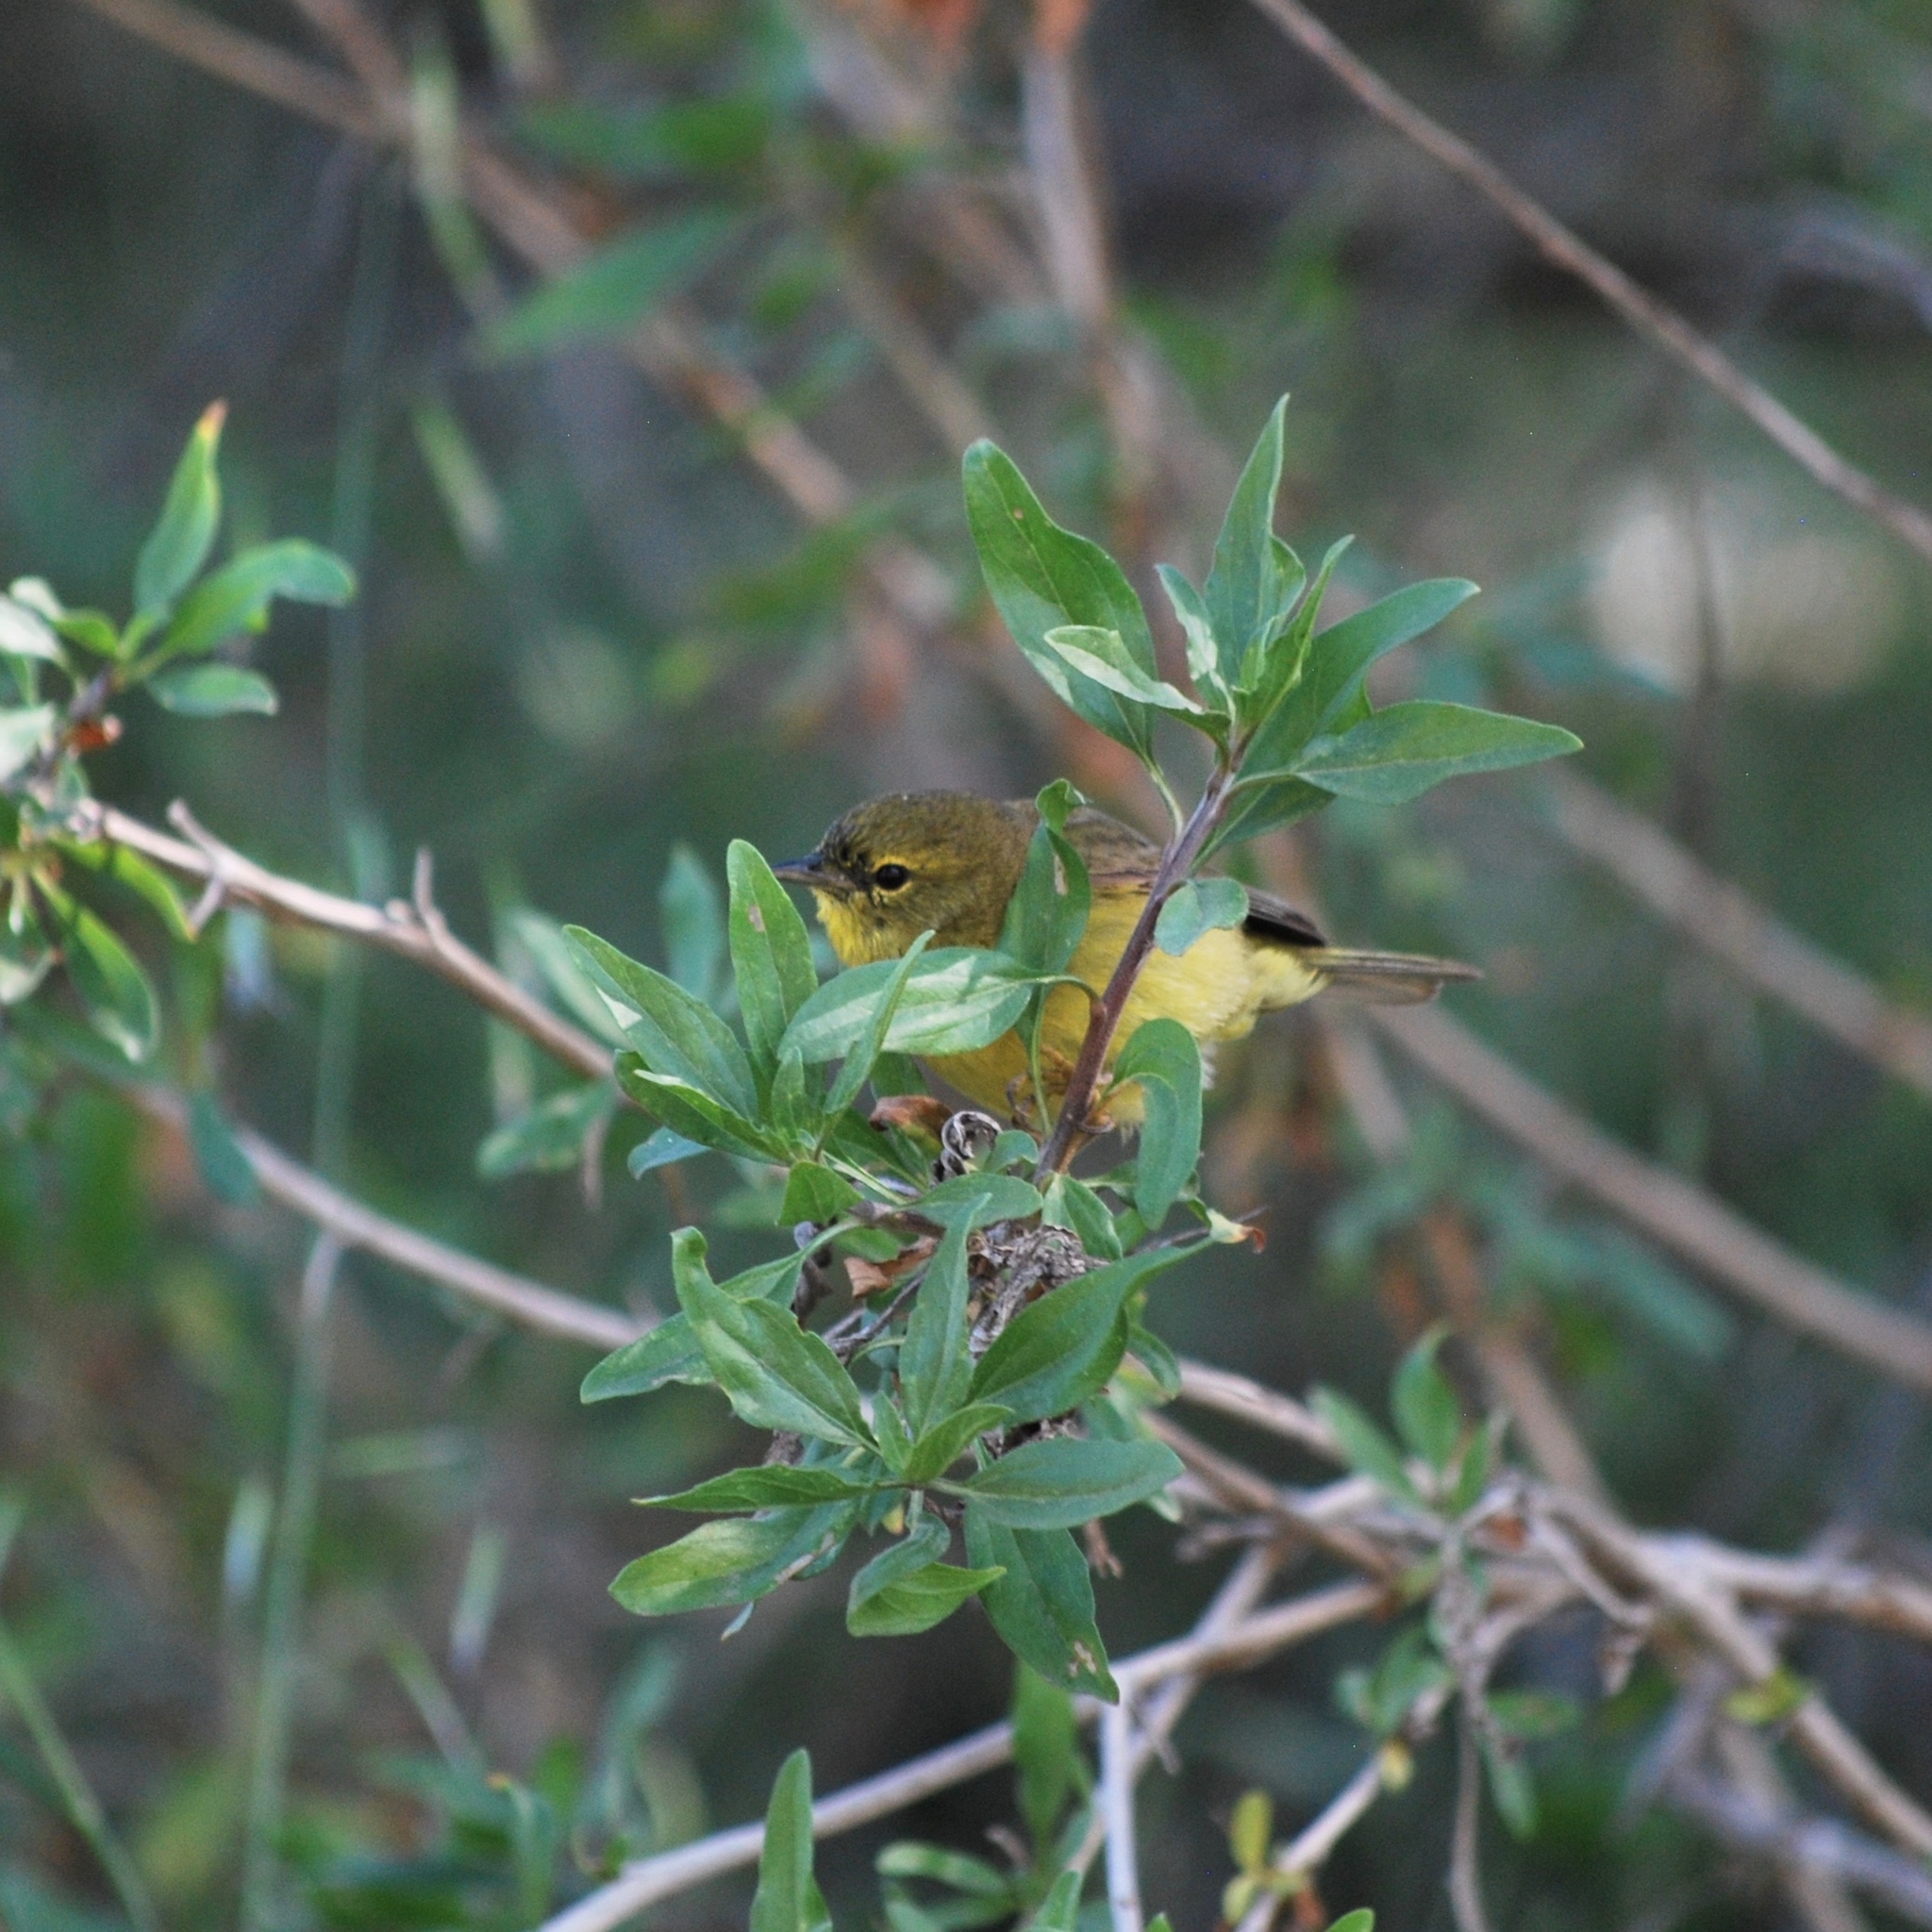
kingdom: Animalia
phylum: Chordata
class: Aves
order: Passeriformes
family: Parulidae
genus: Leiothlypis
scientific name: Leiothlypis celata
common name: Orange-crowned warbler
